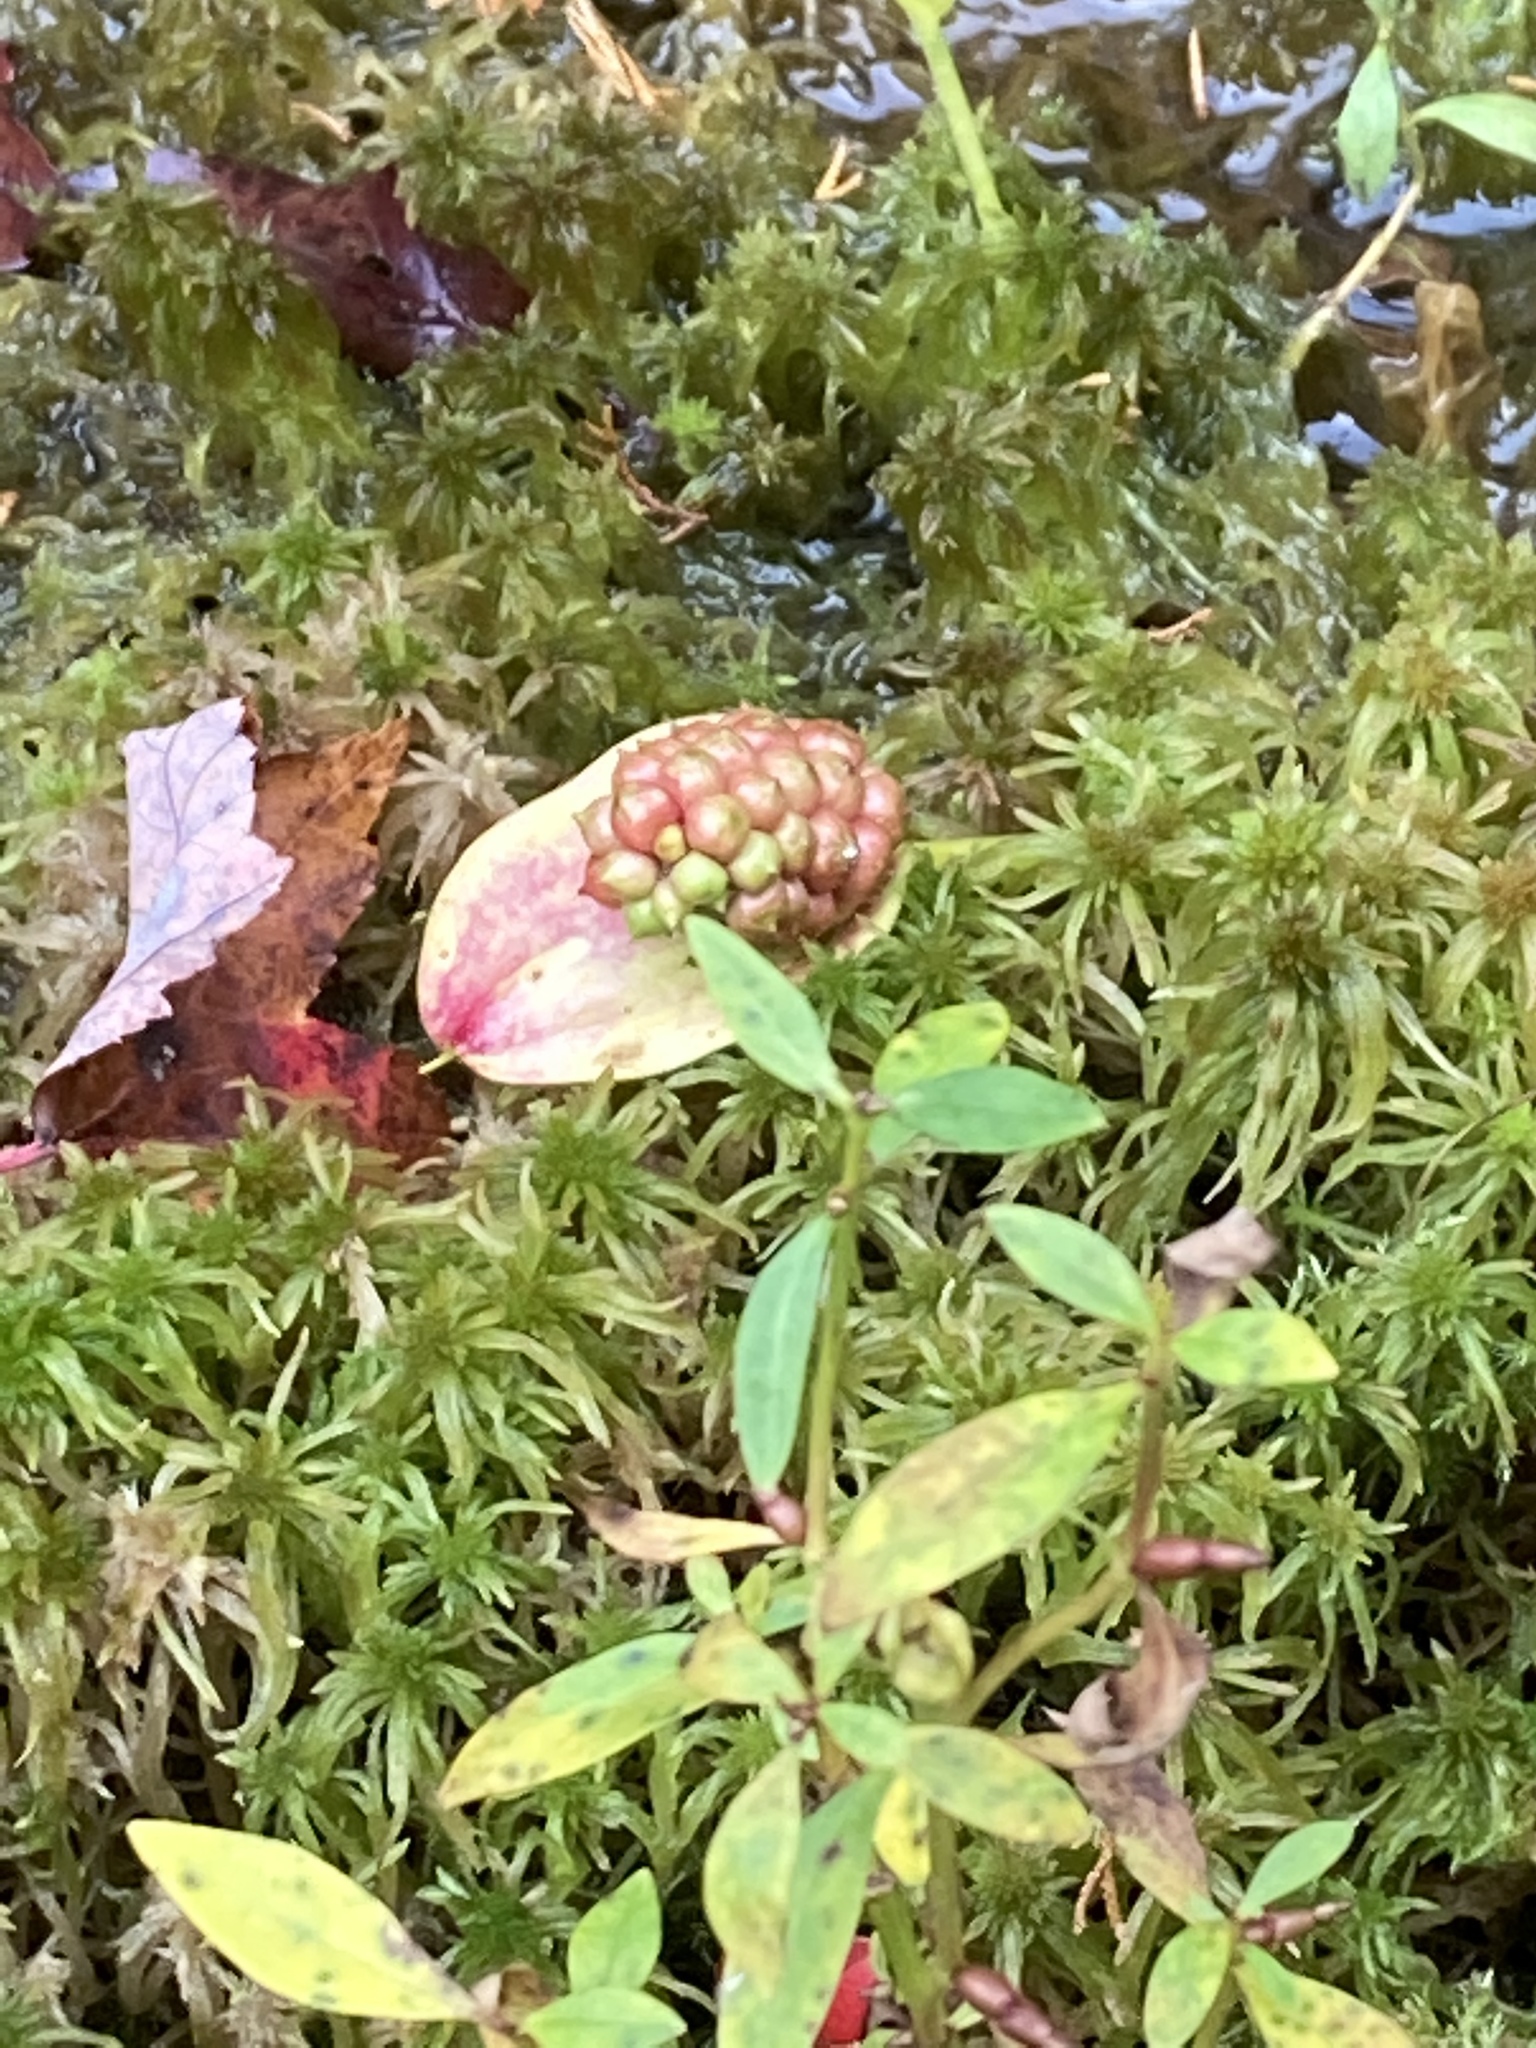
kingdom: Plantae
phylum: Tracheophyta
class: Liliopsida
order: Alismatales
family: Araceae
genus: Calla
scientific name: Calla palustris
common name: Bog arum
